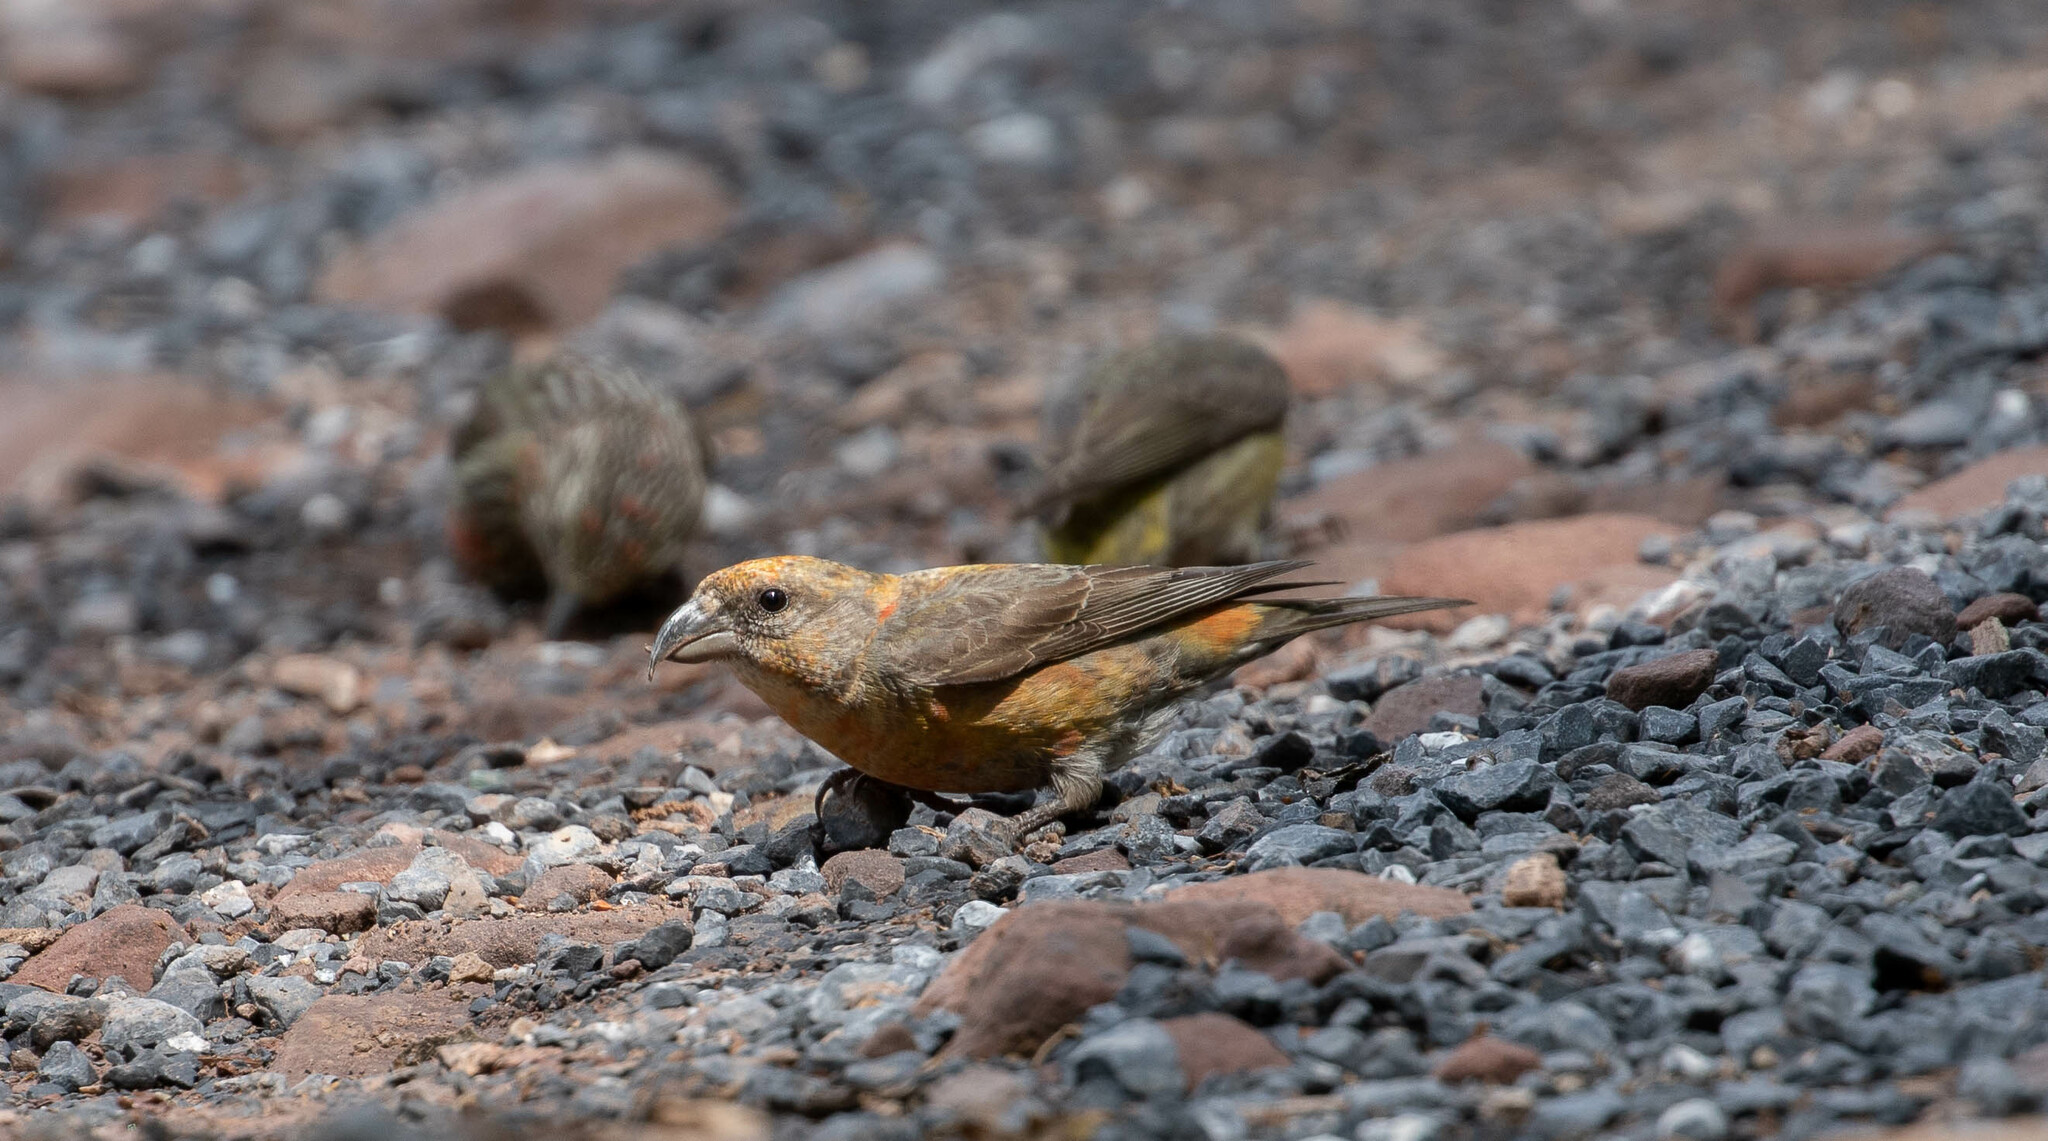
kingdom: Animalia
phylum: Chordata
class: Aves
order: Passeriformes
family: Fringillidae
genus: Loxia
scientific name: Loxia curvirostra
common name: Red crossbill
